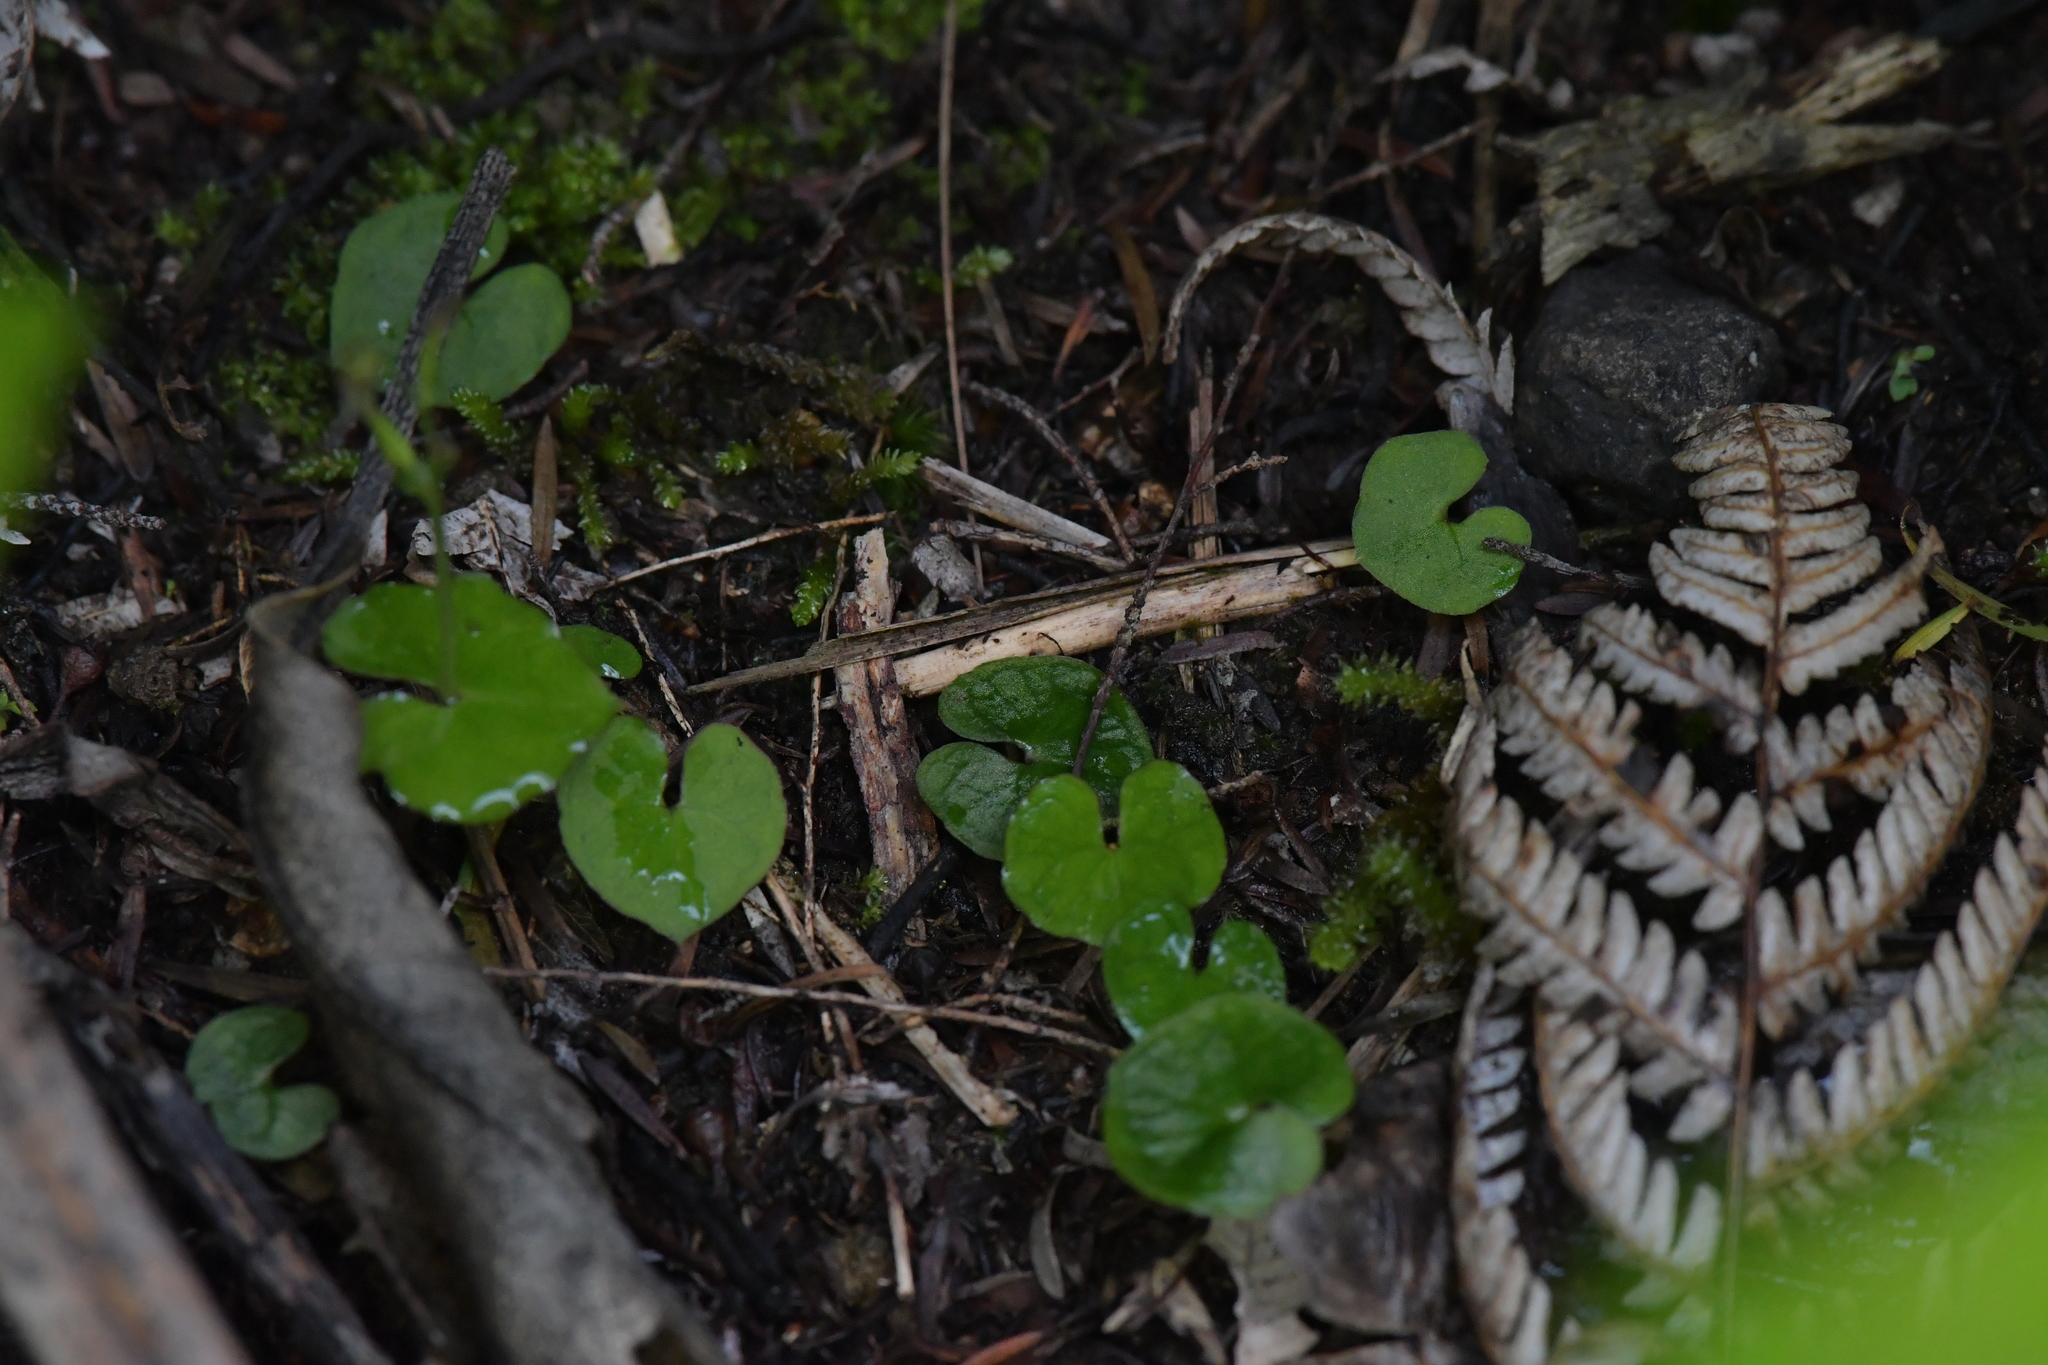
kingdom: Plantae
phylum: Tracheophyta
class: Liliopsida
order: Asparagales
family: Orchidaceae
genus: Acianthus
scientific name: Acianthus sinclairii
